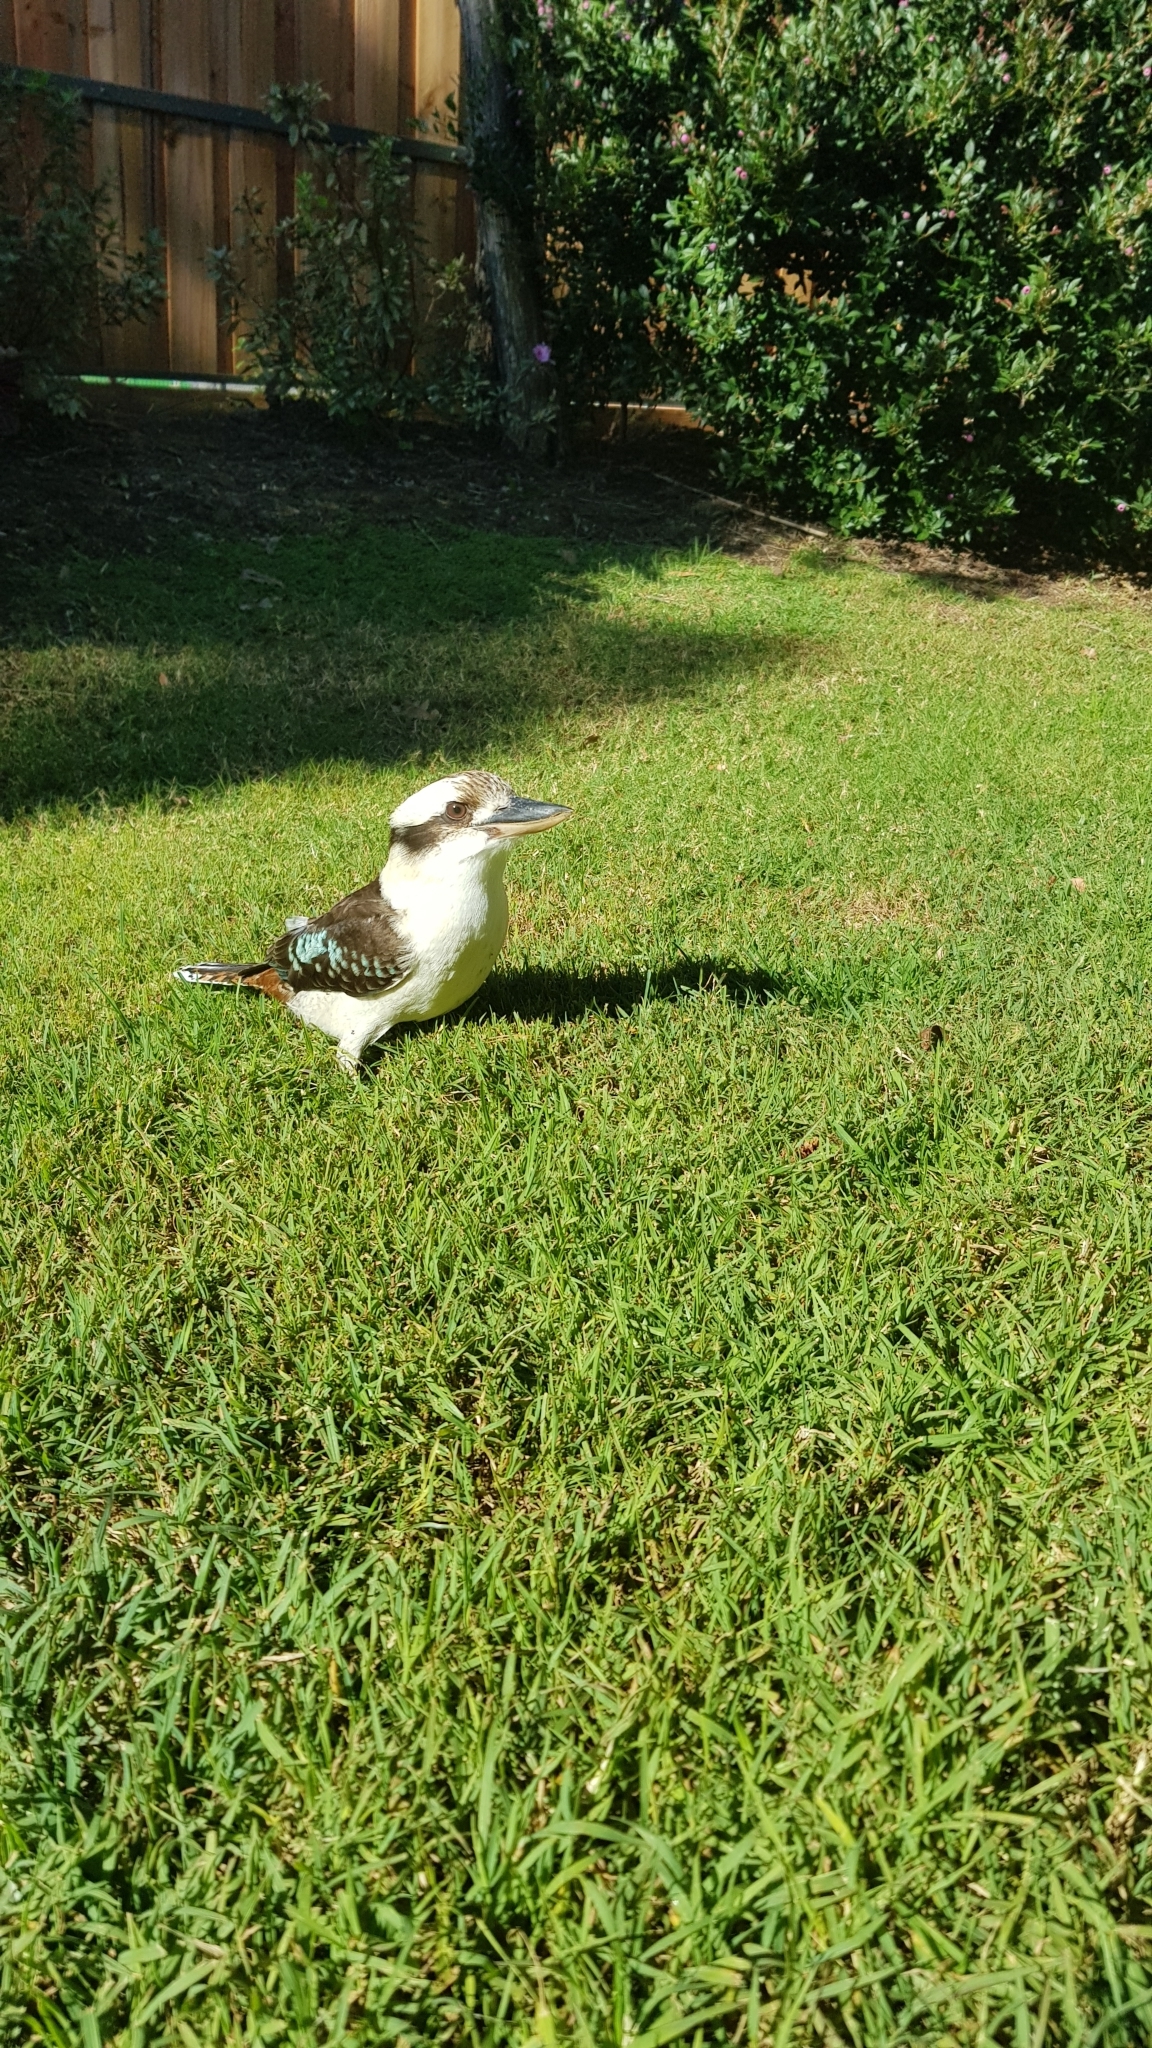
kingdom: Animalia
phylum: Chordata
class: Aves
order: Coraciiformes
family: Alcedinidae
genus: Dacelo
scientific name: Dacelo novaeguineae
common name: Laughing kookaburra
